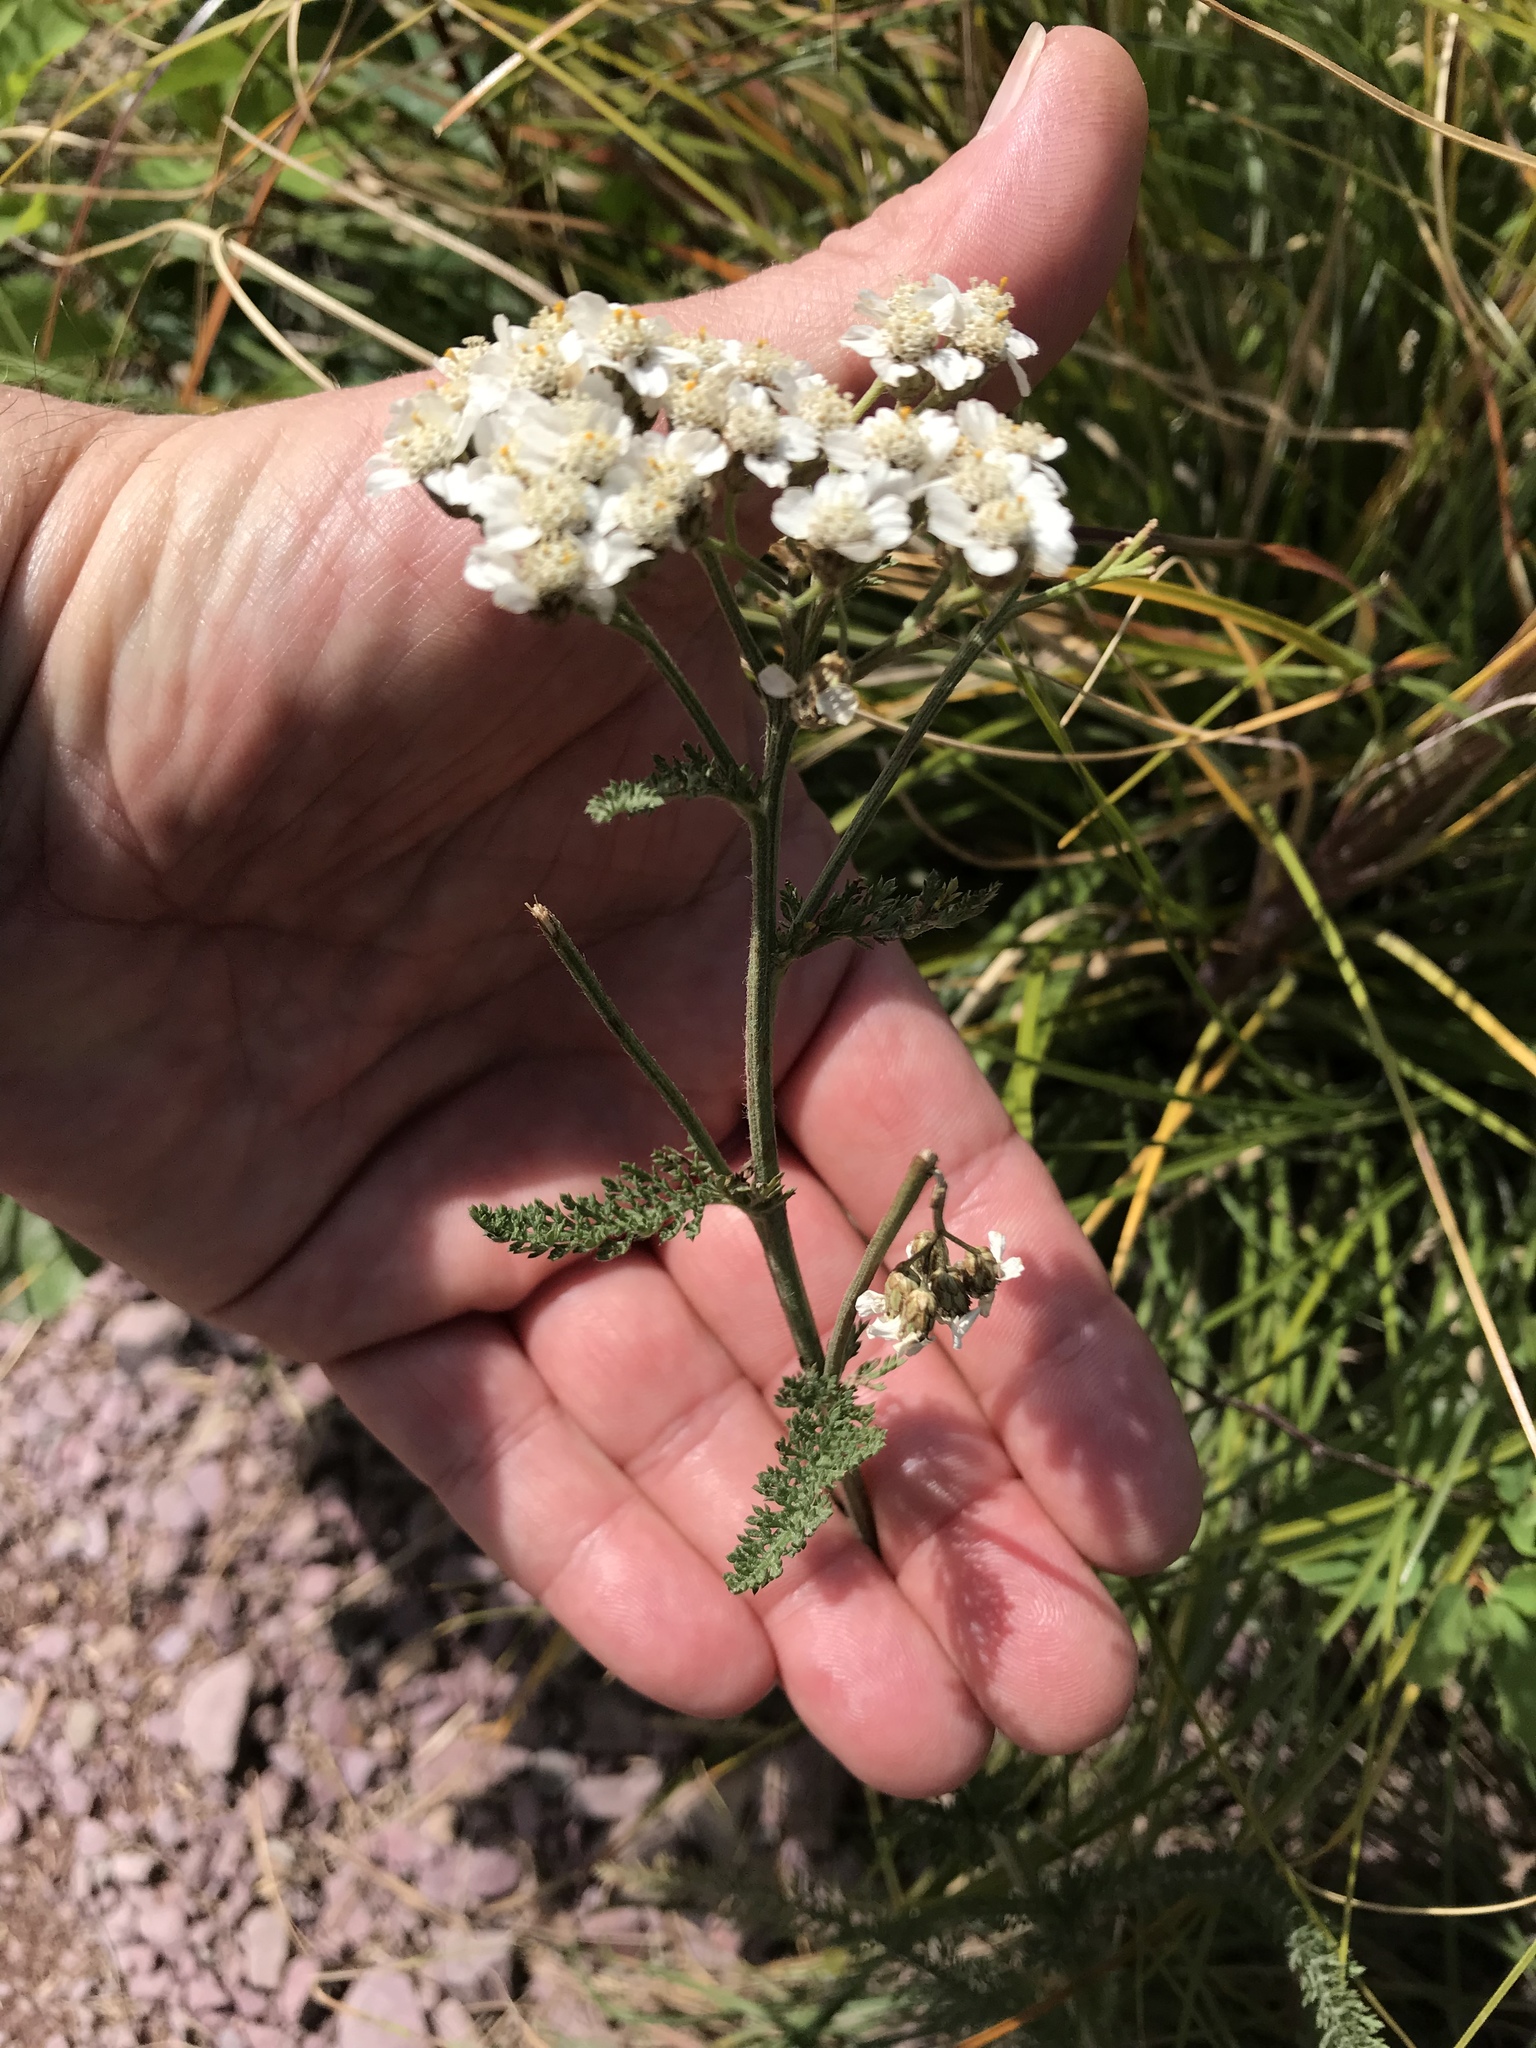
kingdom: Plantae
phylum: Tracheophyta
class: Magnoliopsida
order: Asterales
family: Asteraceae
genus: Achillea
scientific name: Achillea millefolium
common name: Yarrow
